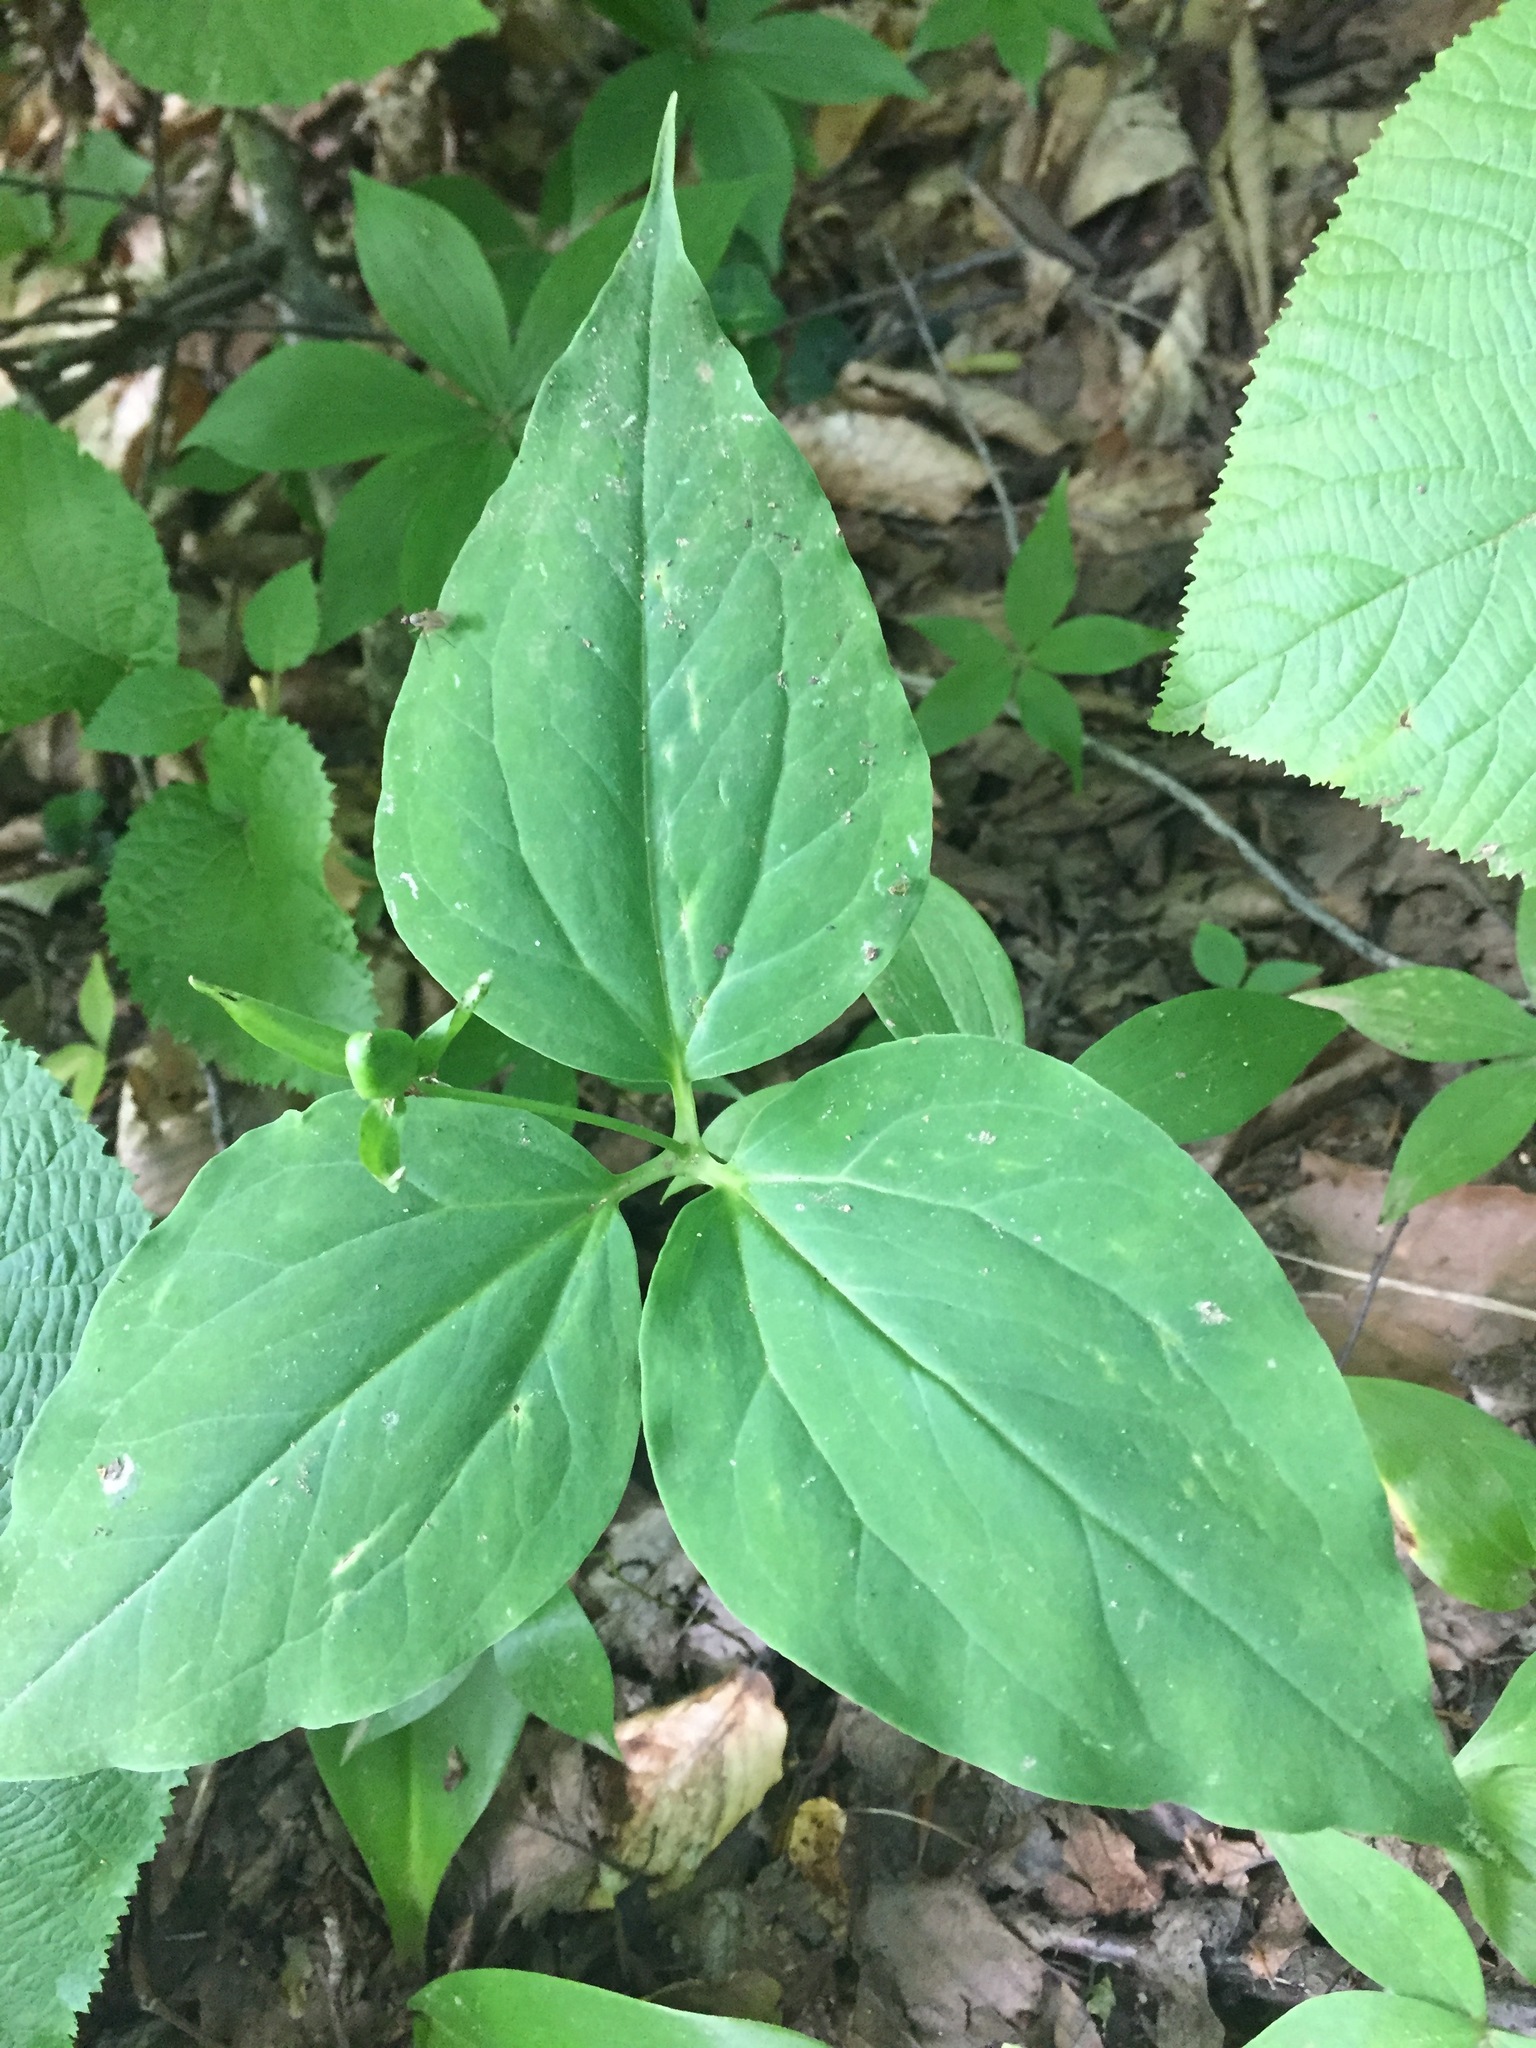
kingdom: Plantae
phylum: Tracheophyta
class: Liliopsida
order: Liliales
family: Melanthiaceae
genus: Trillium
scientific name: Trillium undulatum
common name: Paint trillium
